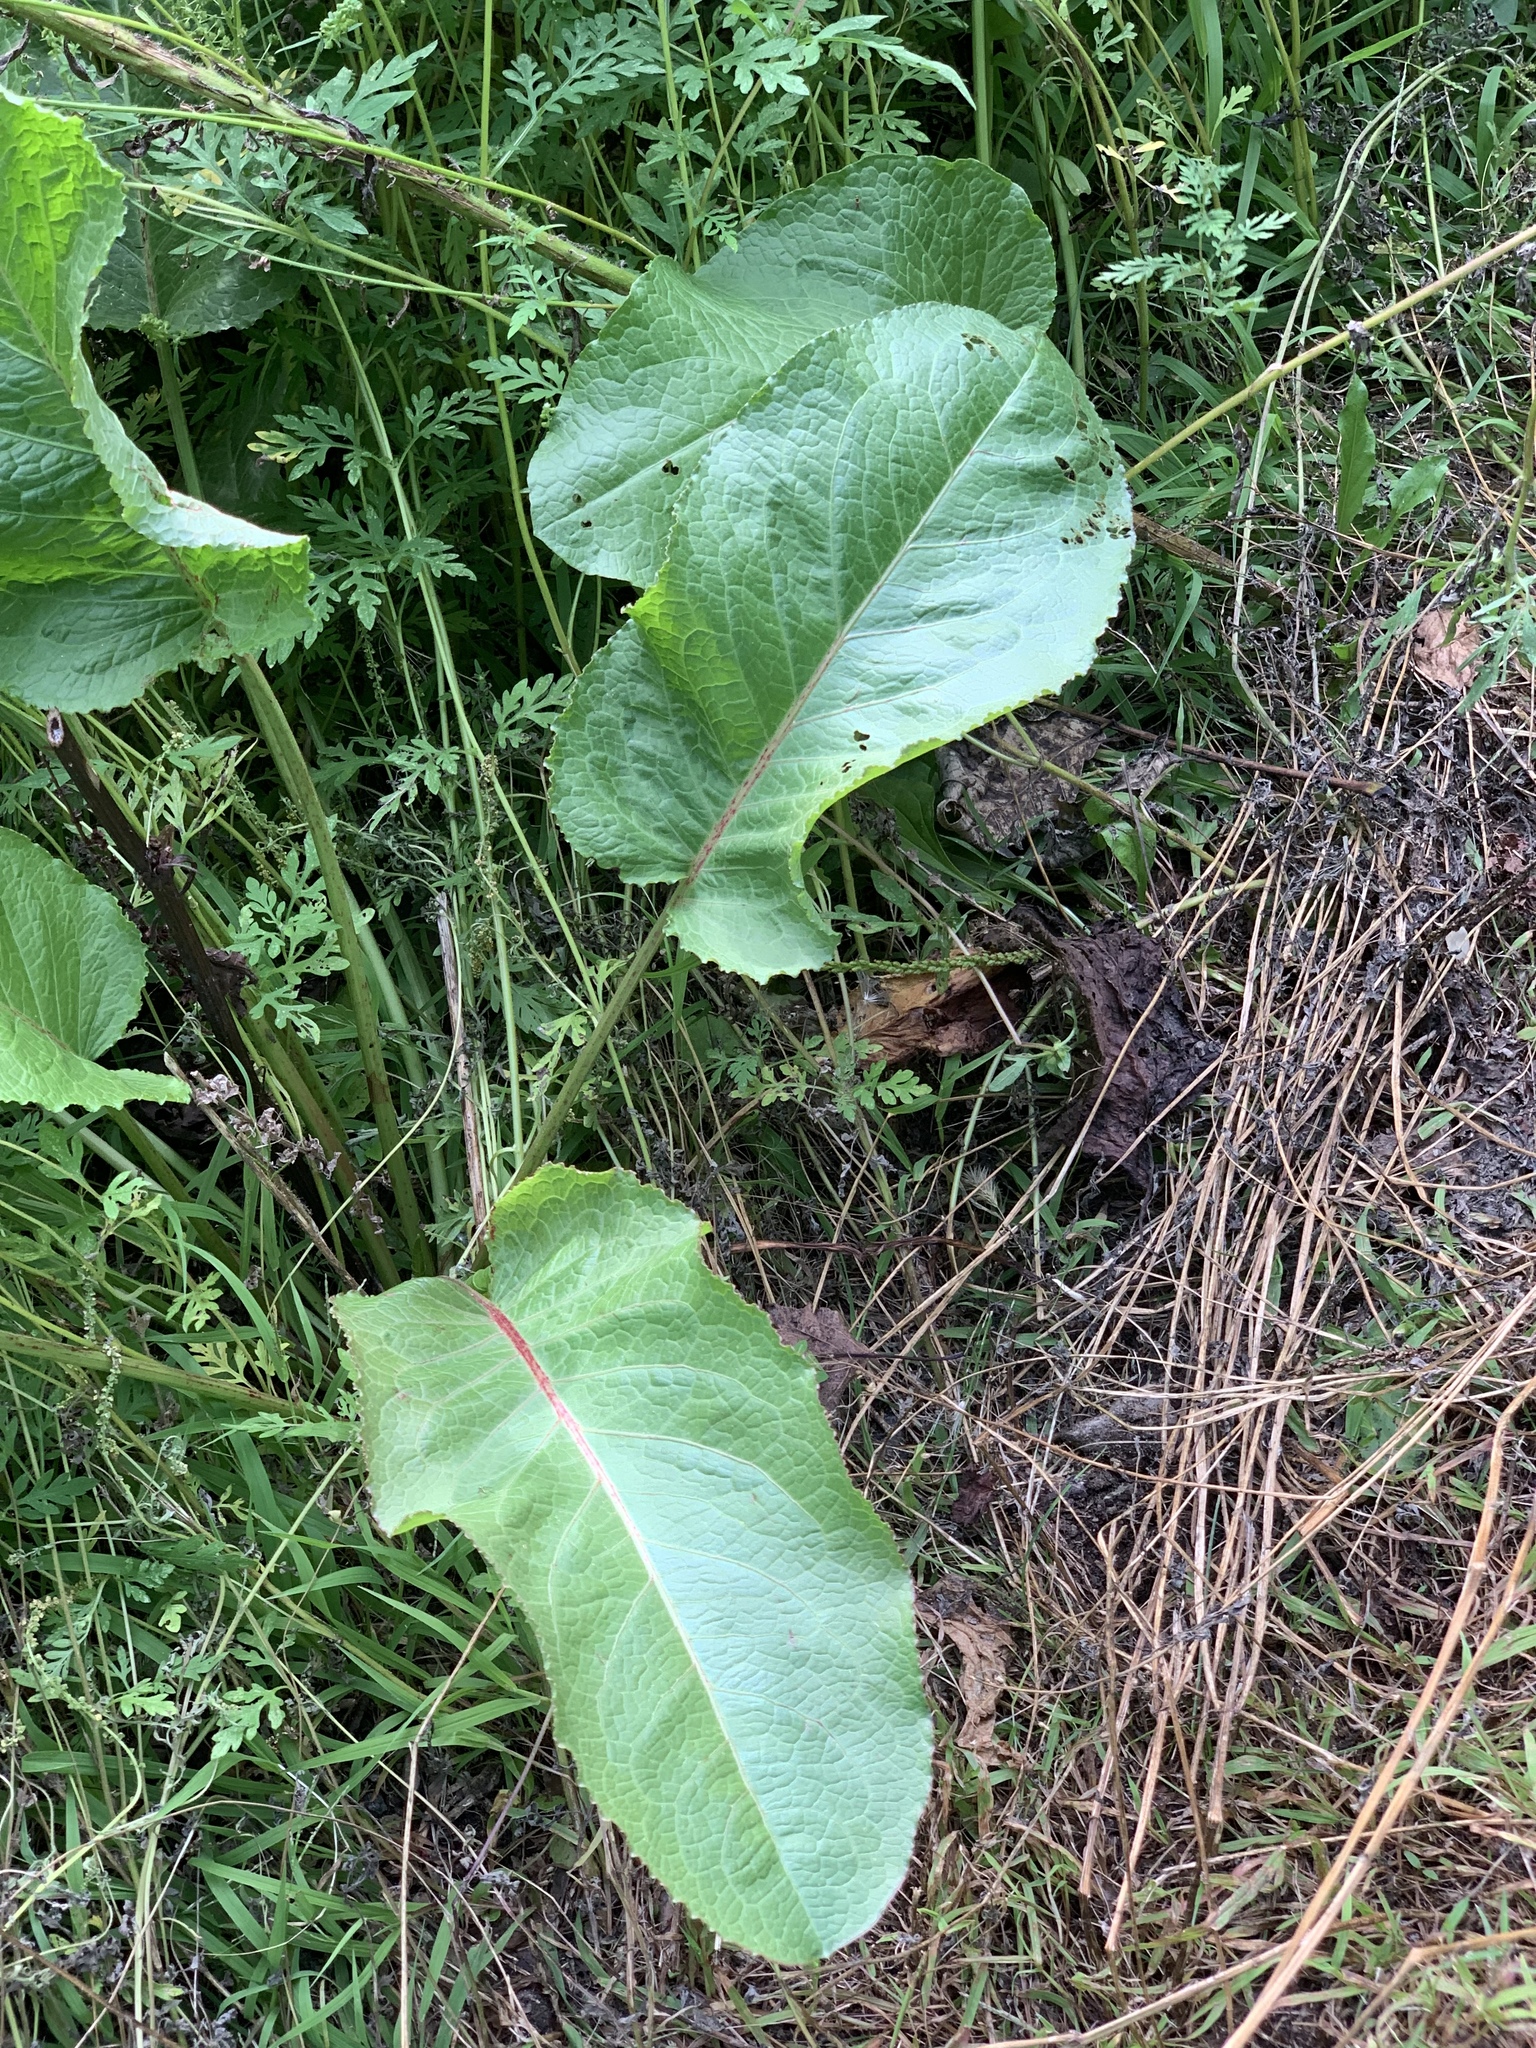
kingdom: Plantae
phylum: Tracheophyta
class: Magnoliopsida
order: Caryophyllales
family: Polygonaceae
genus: Rumex
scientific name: Rumex obtusifolius
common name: Bitter dock
